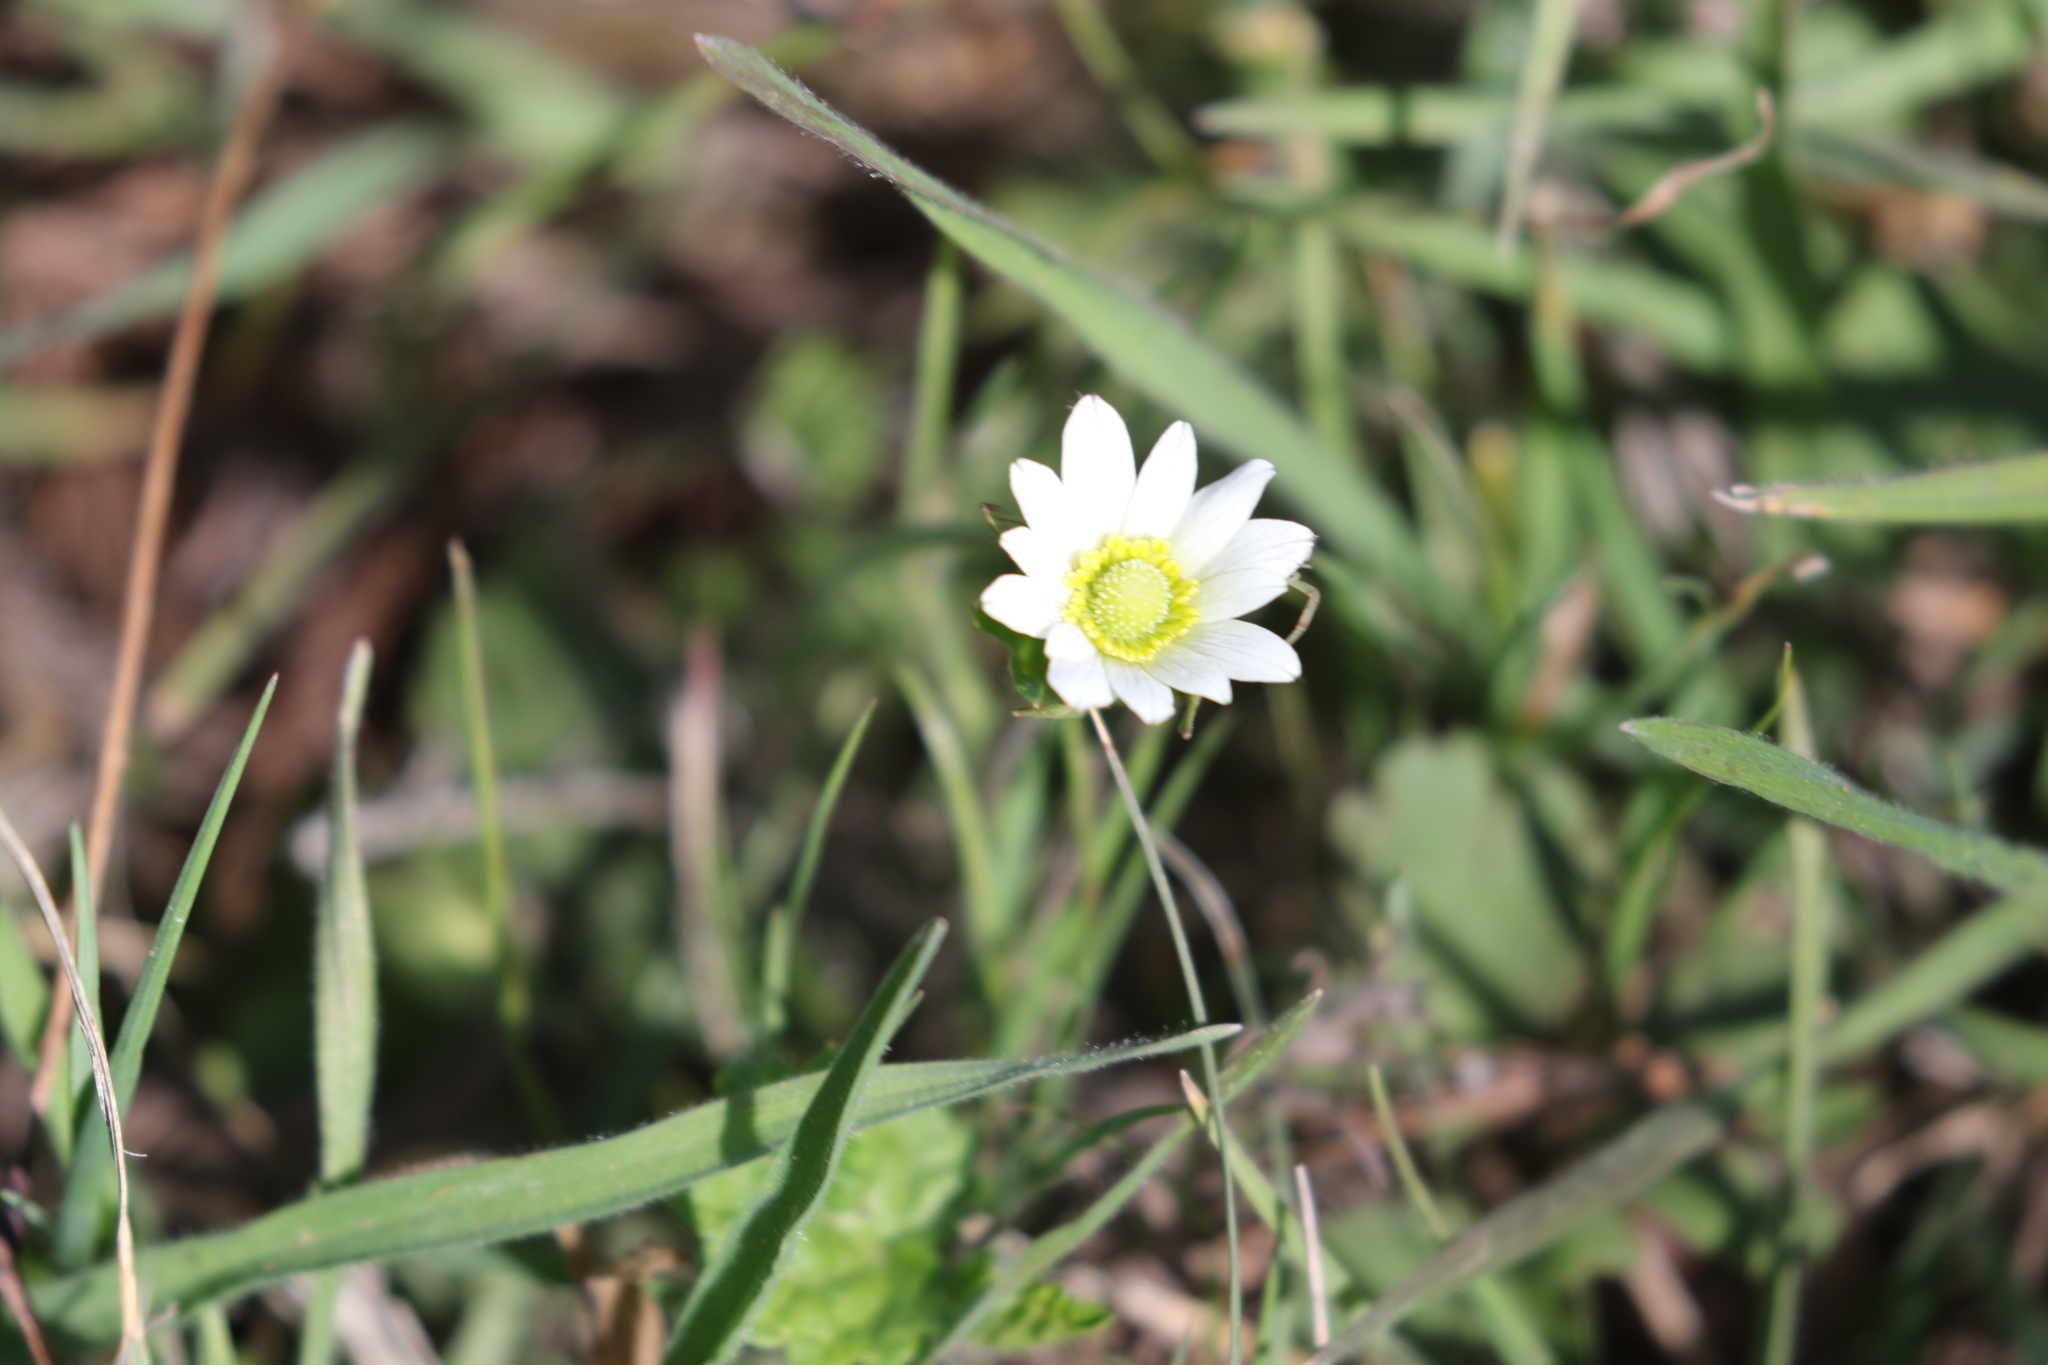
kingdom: Plantae
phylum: Tracheophyta
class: Magnoliopsida
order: Ranunculales
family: Ranunculaceae
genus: Anemone
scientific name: Anemone berlandieri
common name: Ten-petal anemone
